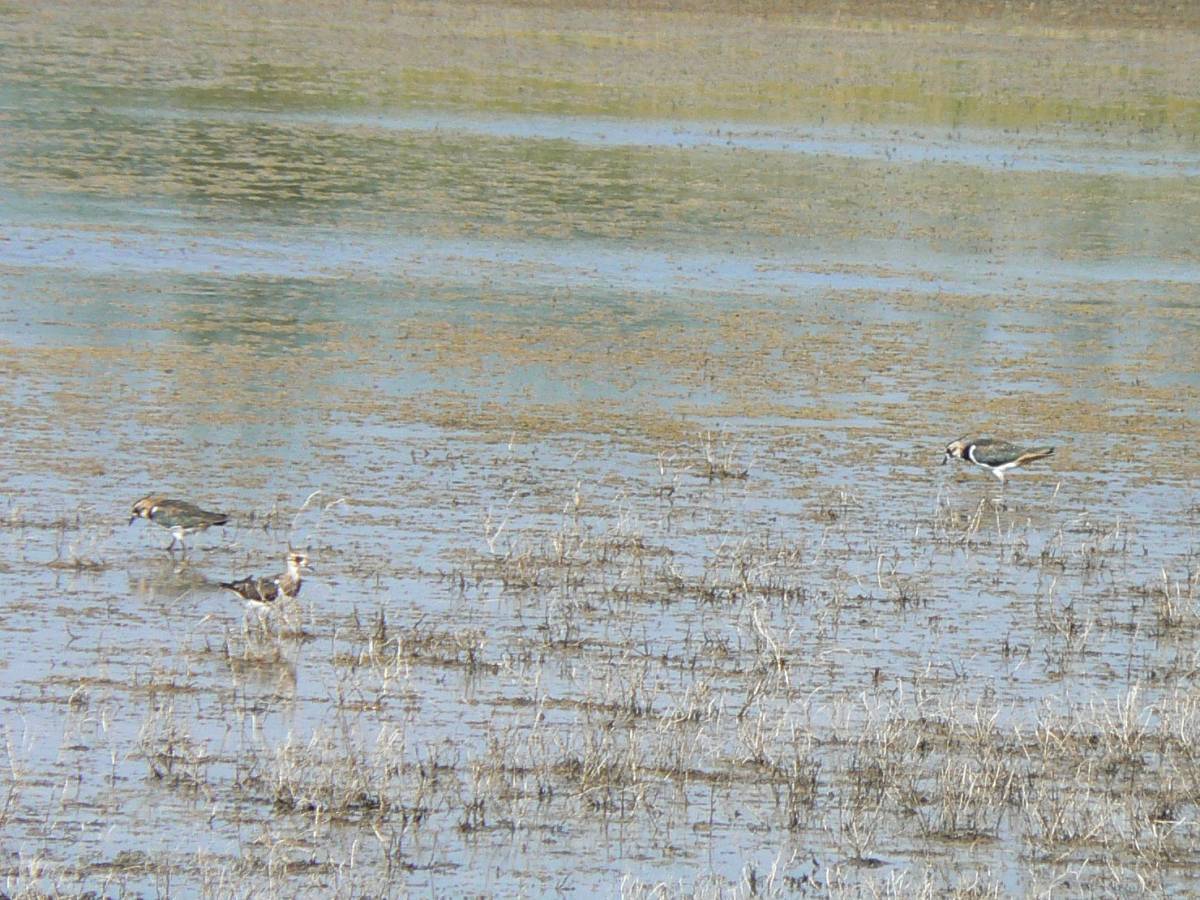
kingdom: Animalia
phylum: Chordata
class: Aves
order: Charadriiformes
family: Charadriidae
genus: Vanellus
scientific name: Vanellus vanellus
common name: Northern lapwing
